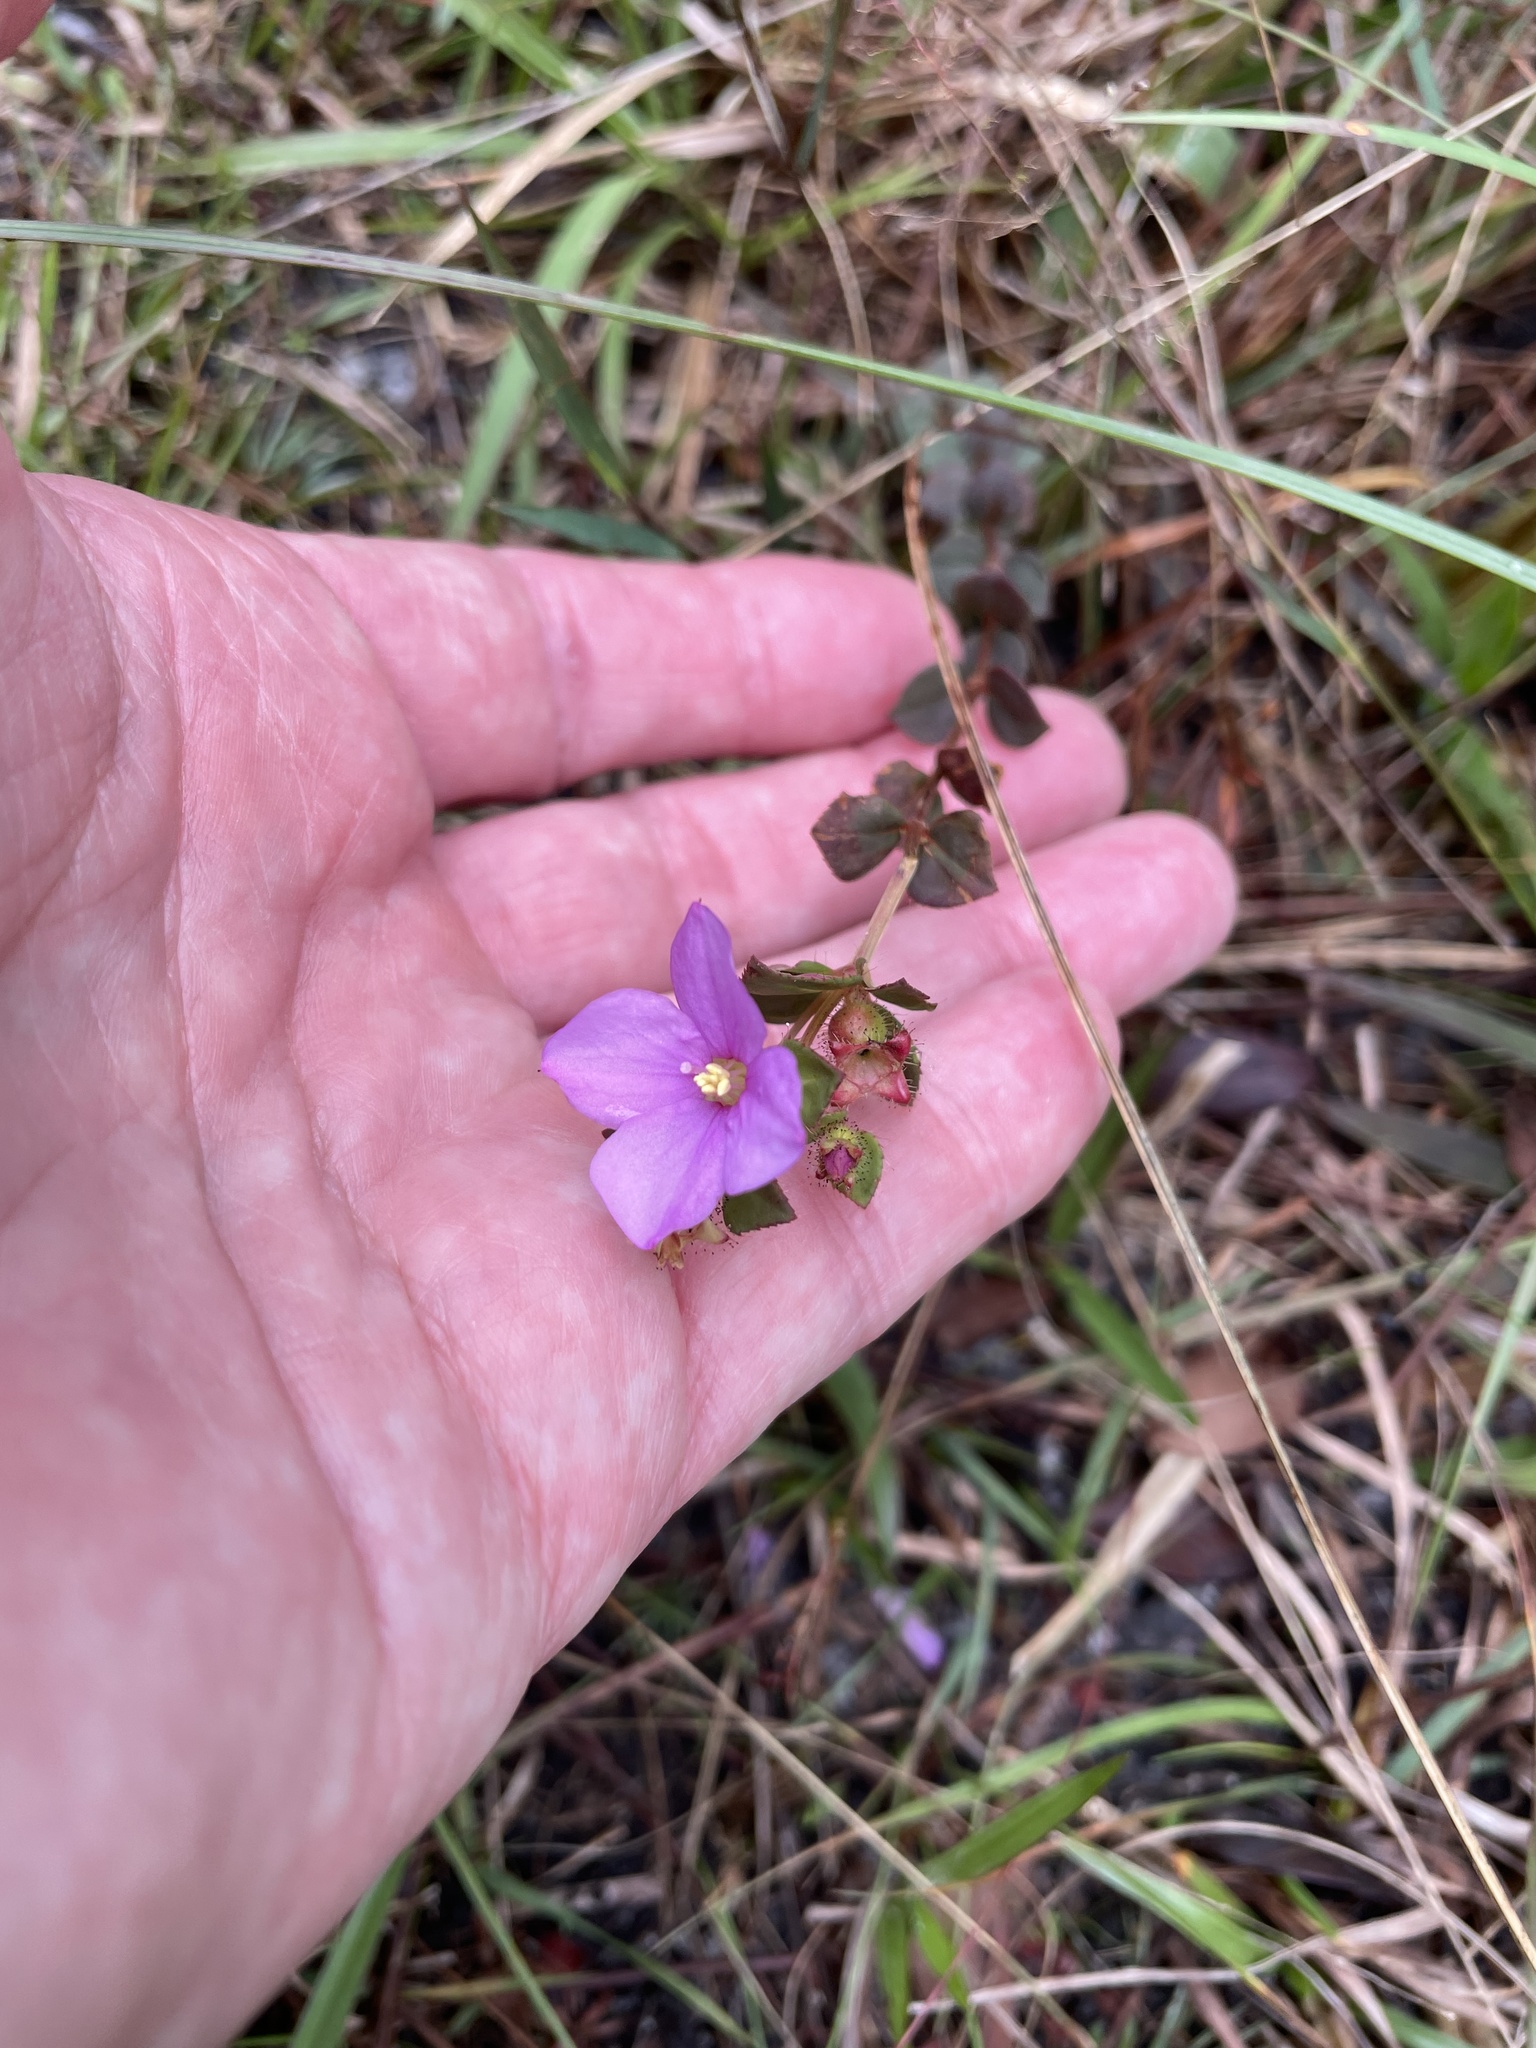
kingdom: Plantae
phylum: Tracheophyta
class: Magnoliopsida
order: Myrtales
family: Melastomataceae
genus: Rhexia
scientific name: Rhexia nuttallii
